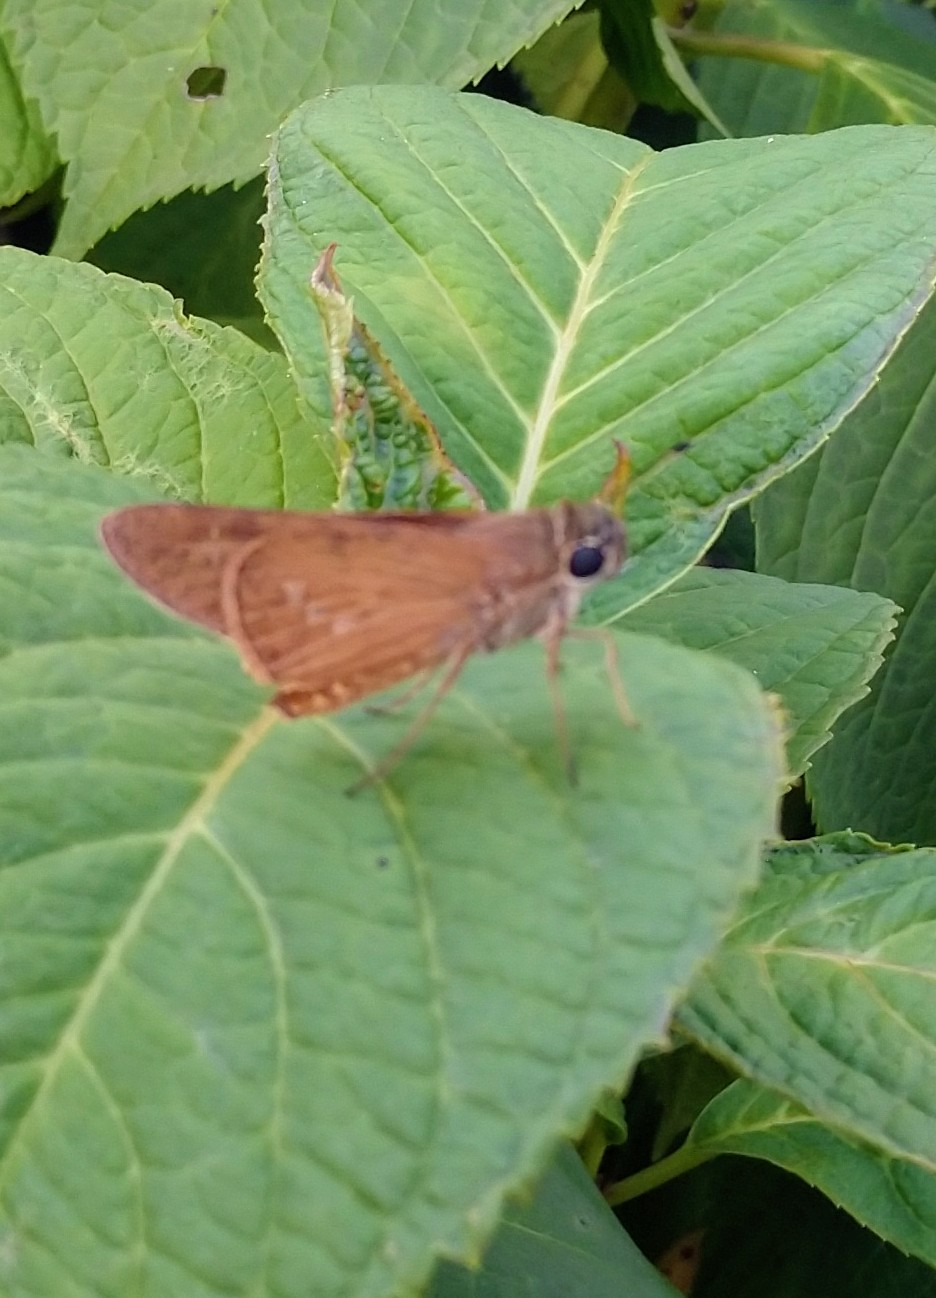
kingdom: Animalia
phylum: Arthropoda
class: Insecta
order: Lepidoptera
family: Hesperiidae
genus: Calpodes
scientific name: Calpodes ethlius
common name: Brazilian skipper
